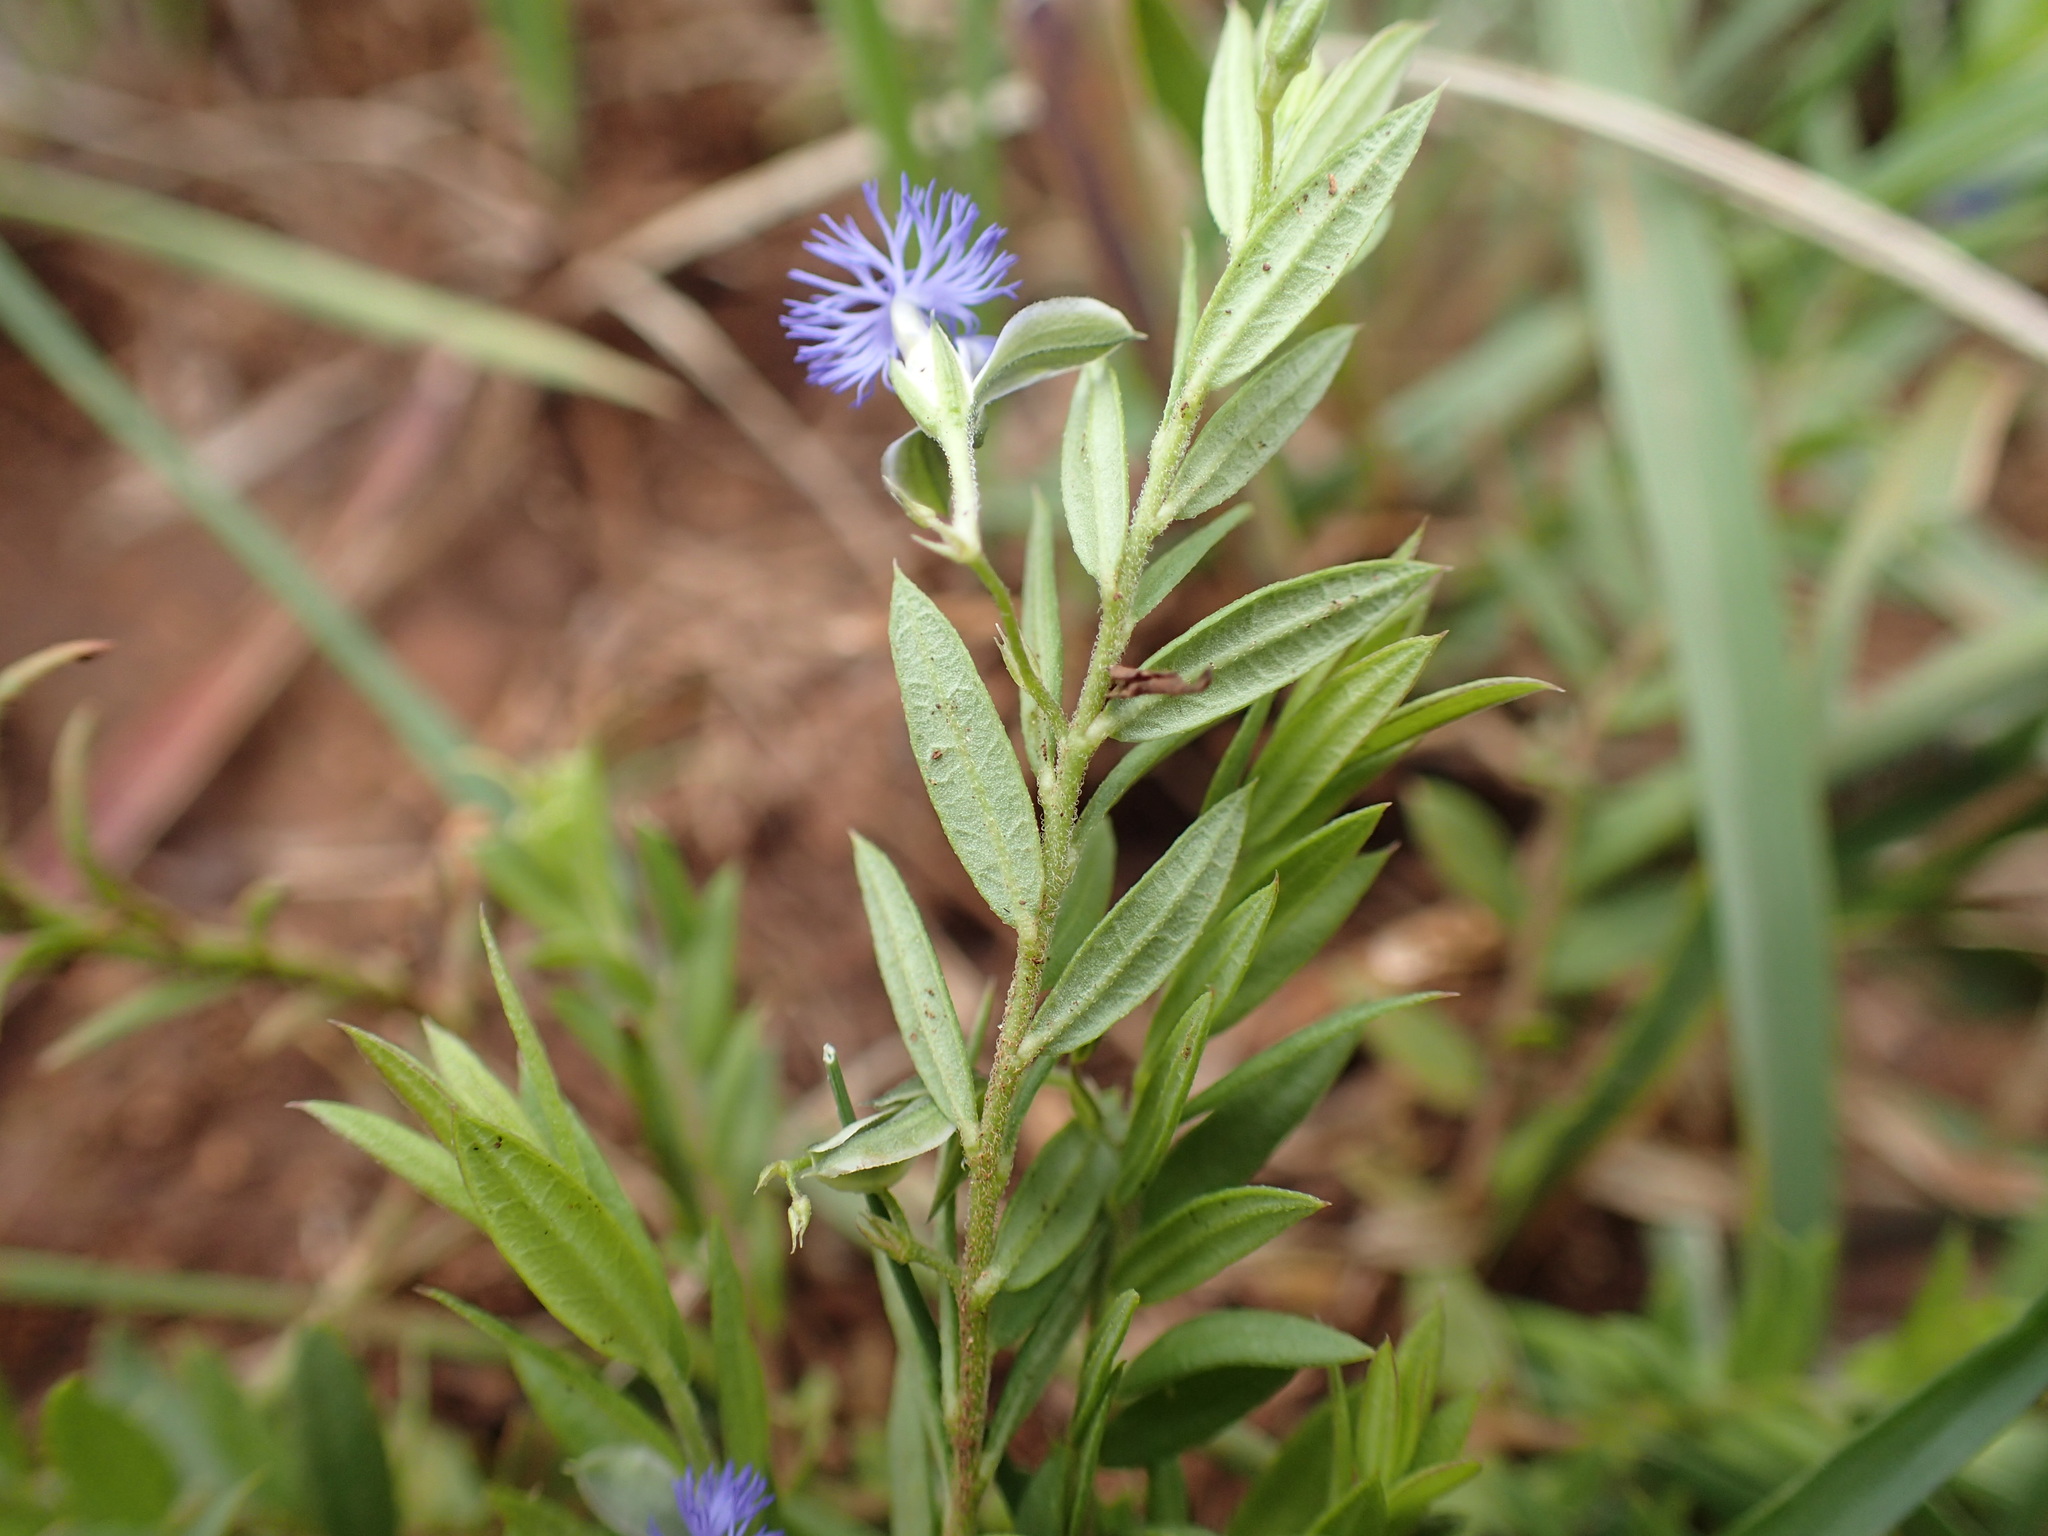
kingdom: Plantae
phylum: Tracheophyta
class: Magnoliopsida
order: Fabales
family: Polygalaceae
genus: Polygala
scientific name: Polygala gerrardii
